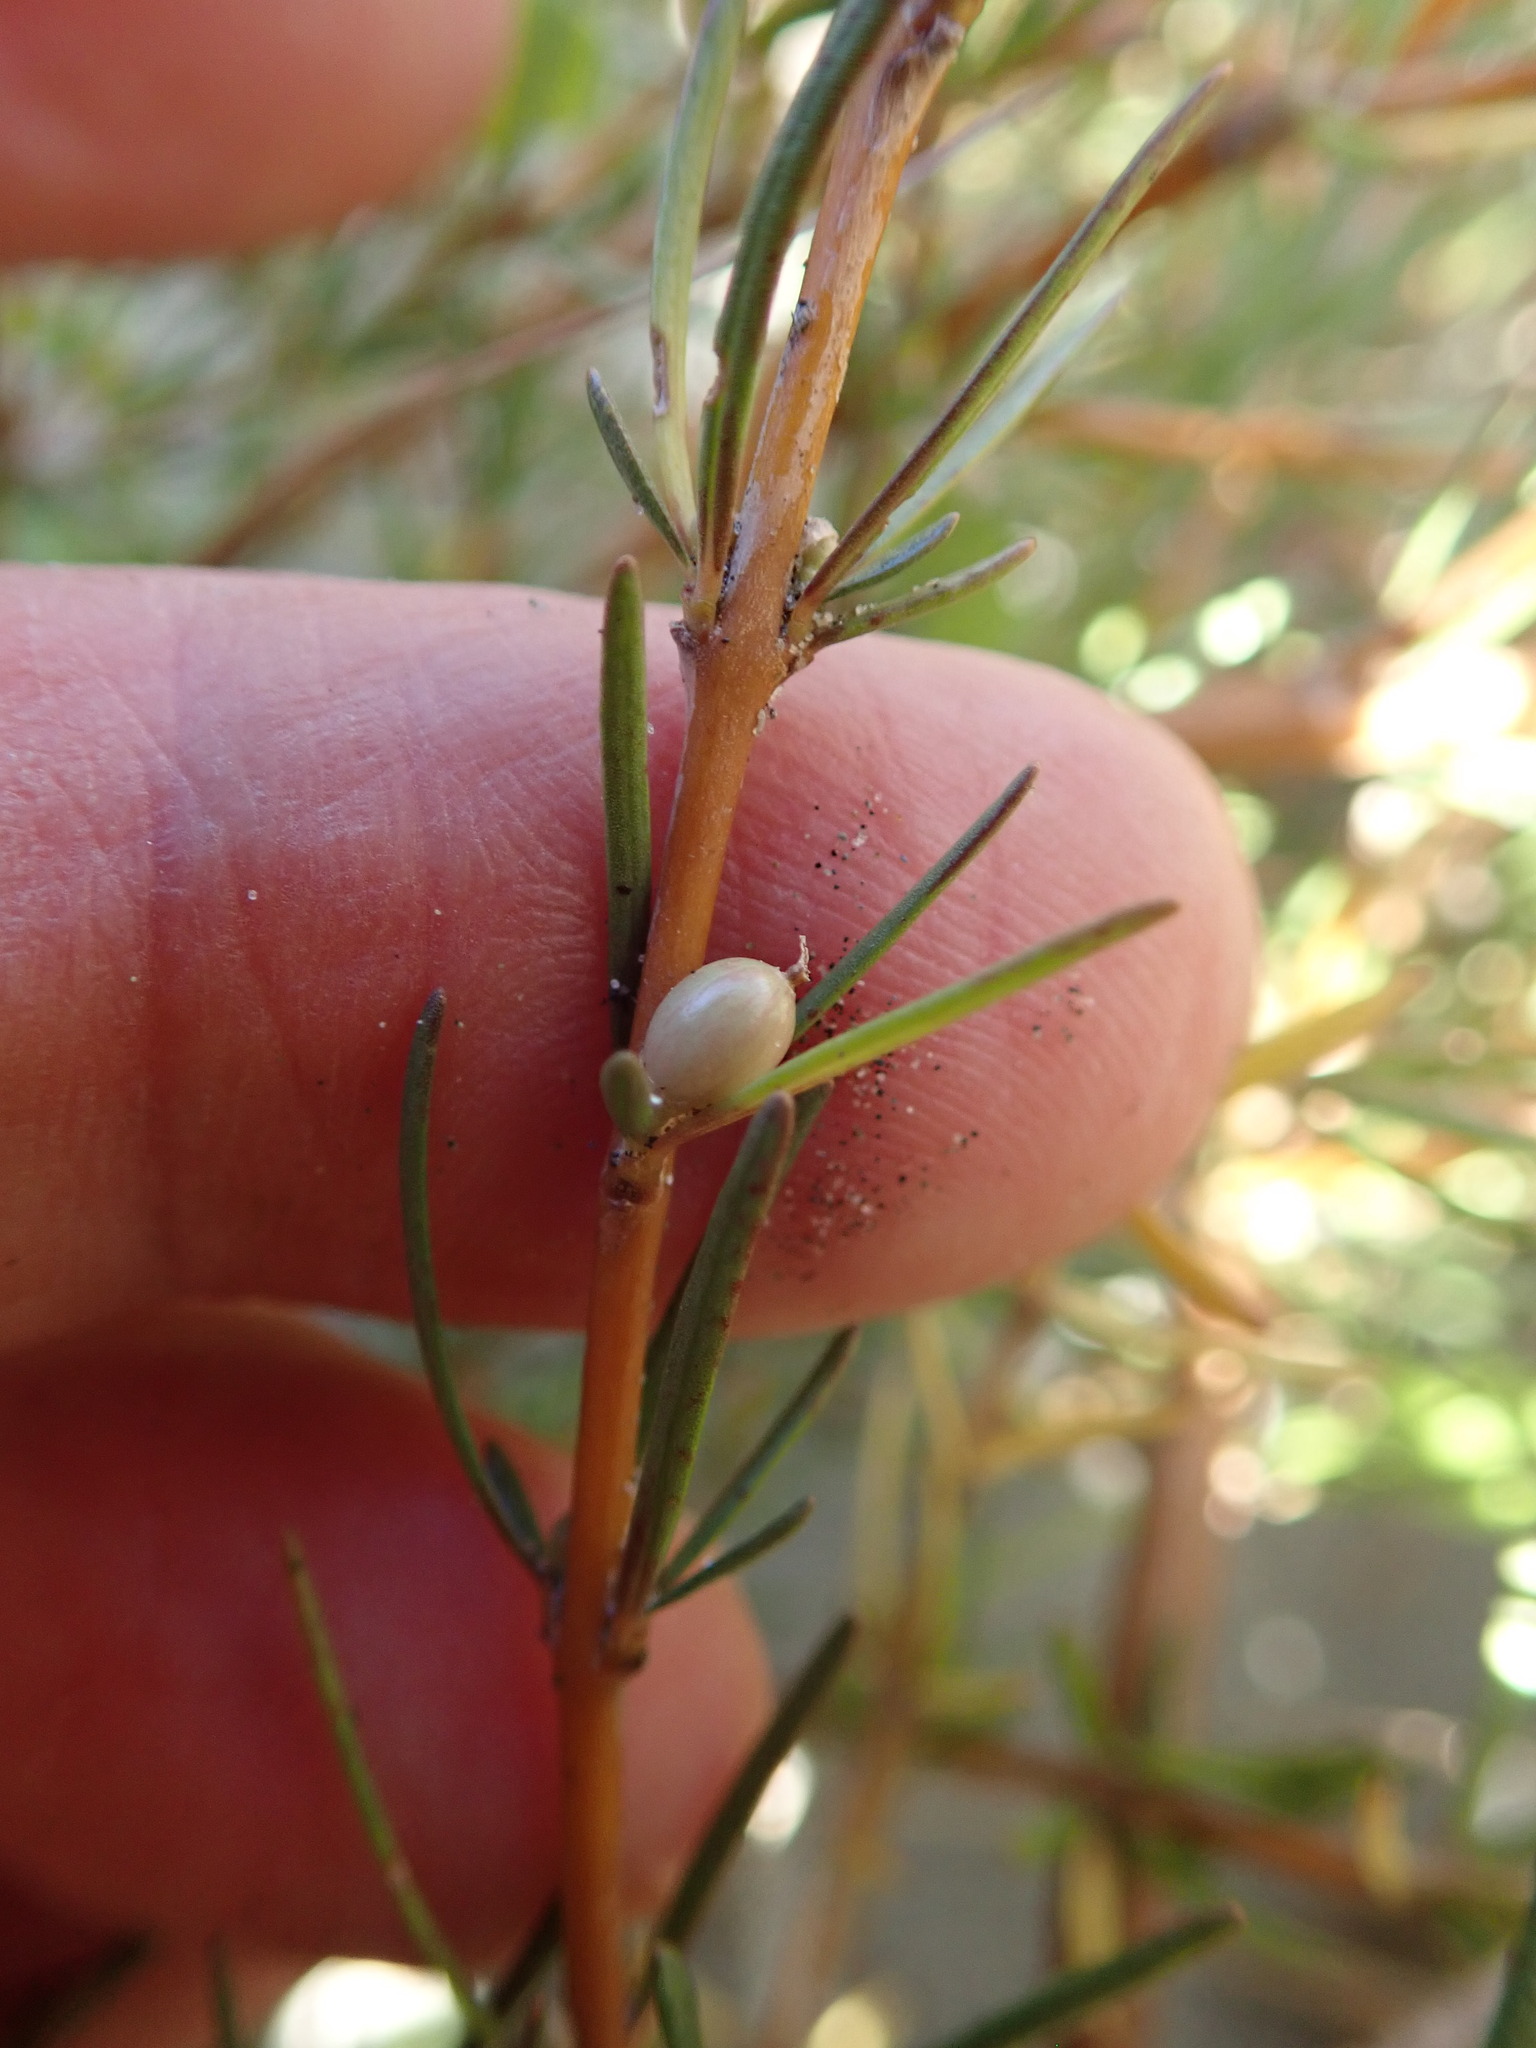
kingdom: Plantae
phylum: Tracheophyta
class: Magnoliopsida
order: Gentianales
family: Rubiaceae
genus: Coprosma
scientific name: Coprosma acerosa
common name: Sand coprosma
